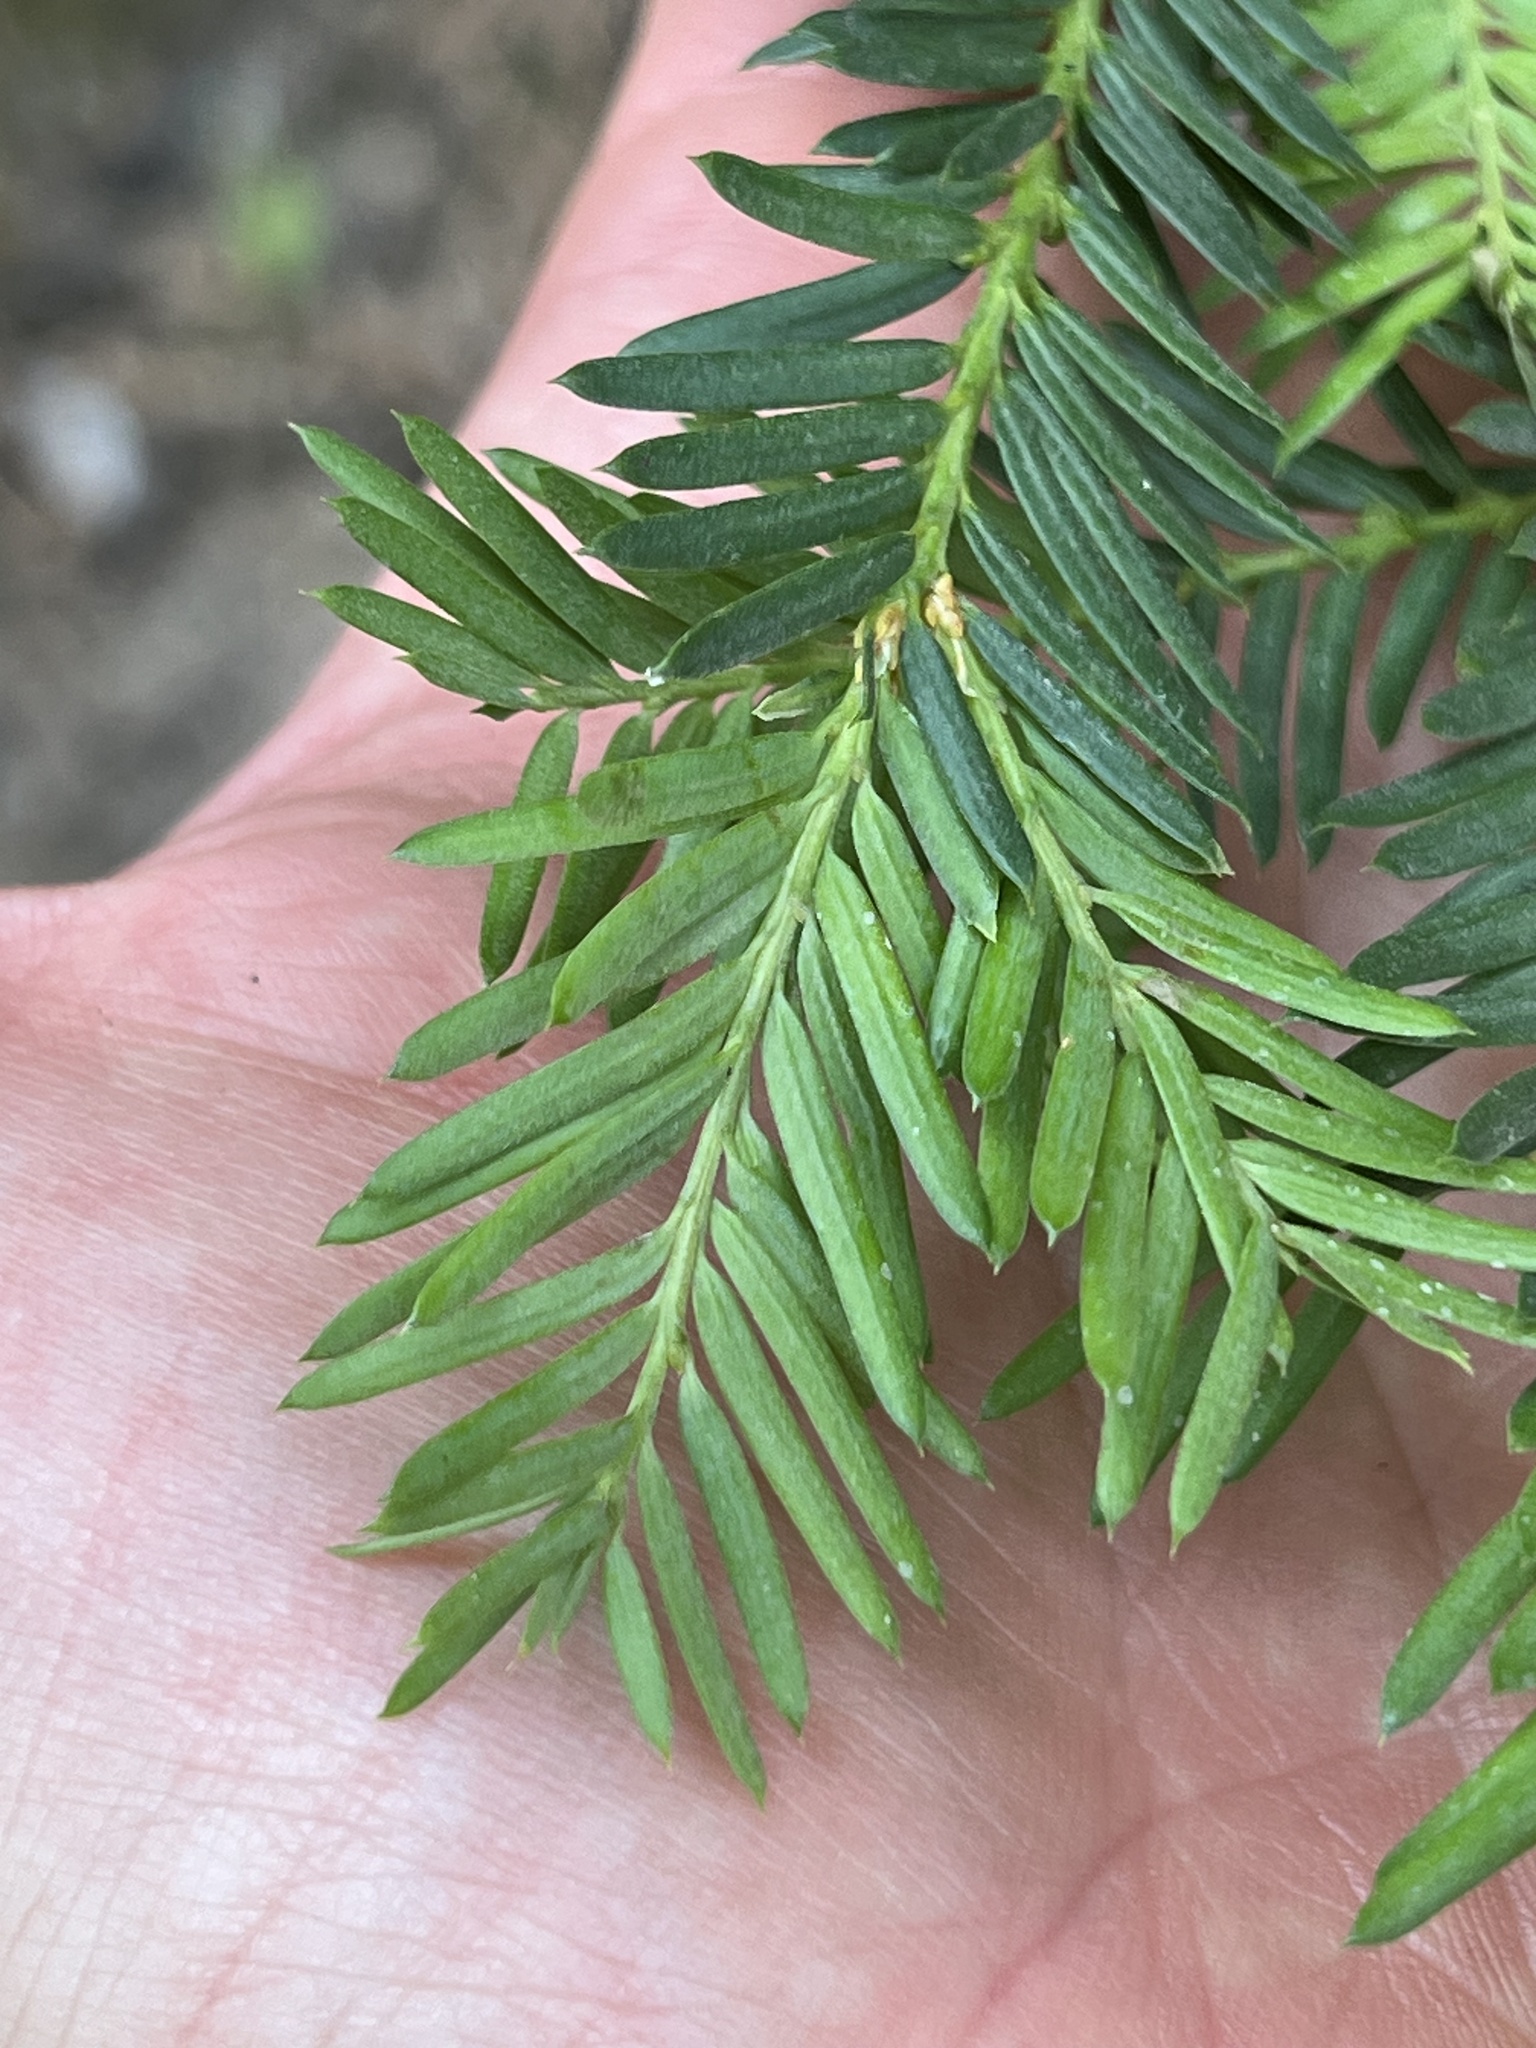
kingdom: Plantae
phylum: Tracheophyta
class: Pinopsida
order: Pinales
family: Taxaceae
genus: Taxus
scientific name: Taxus brevifolia
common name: Pacific yew
